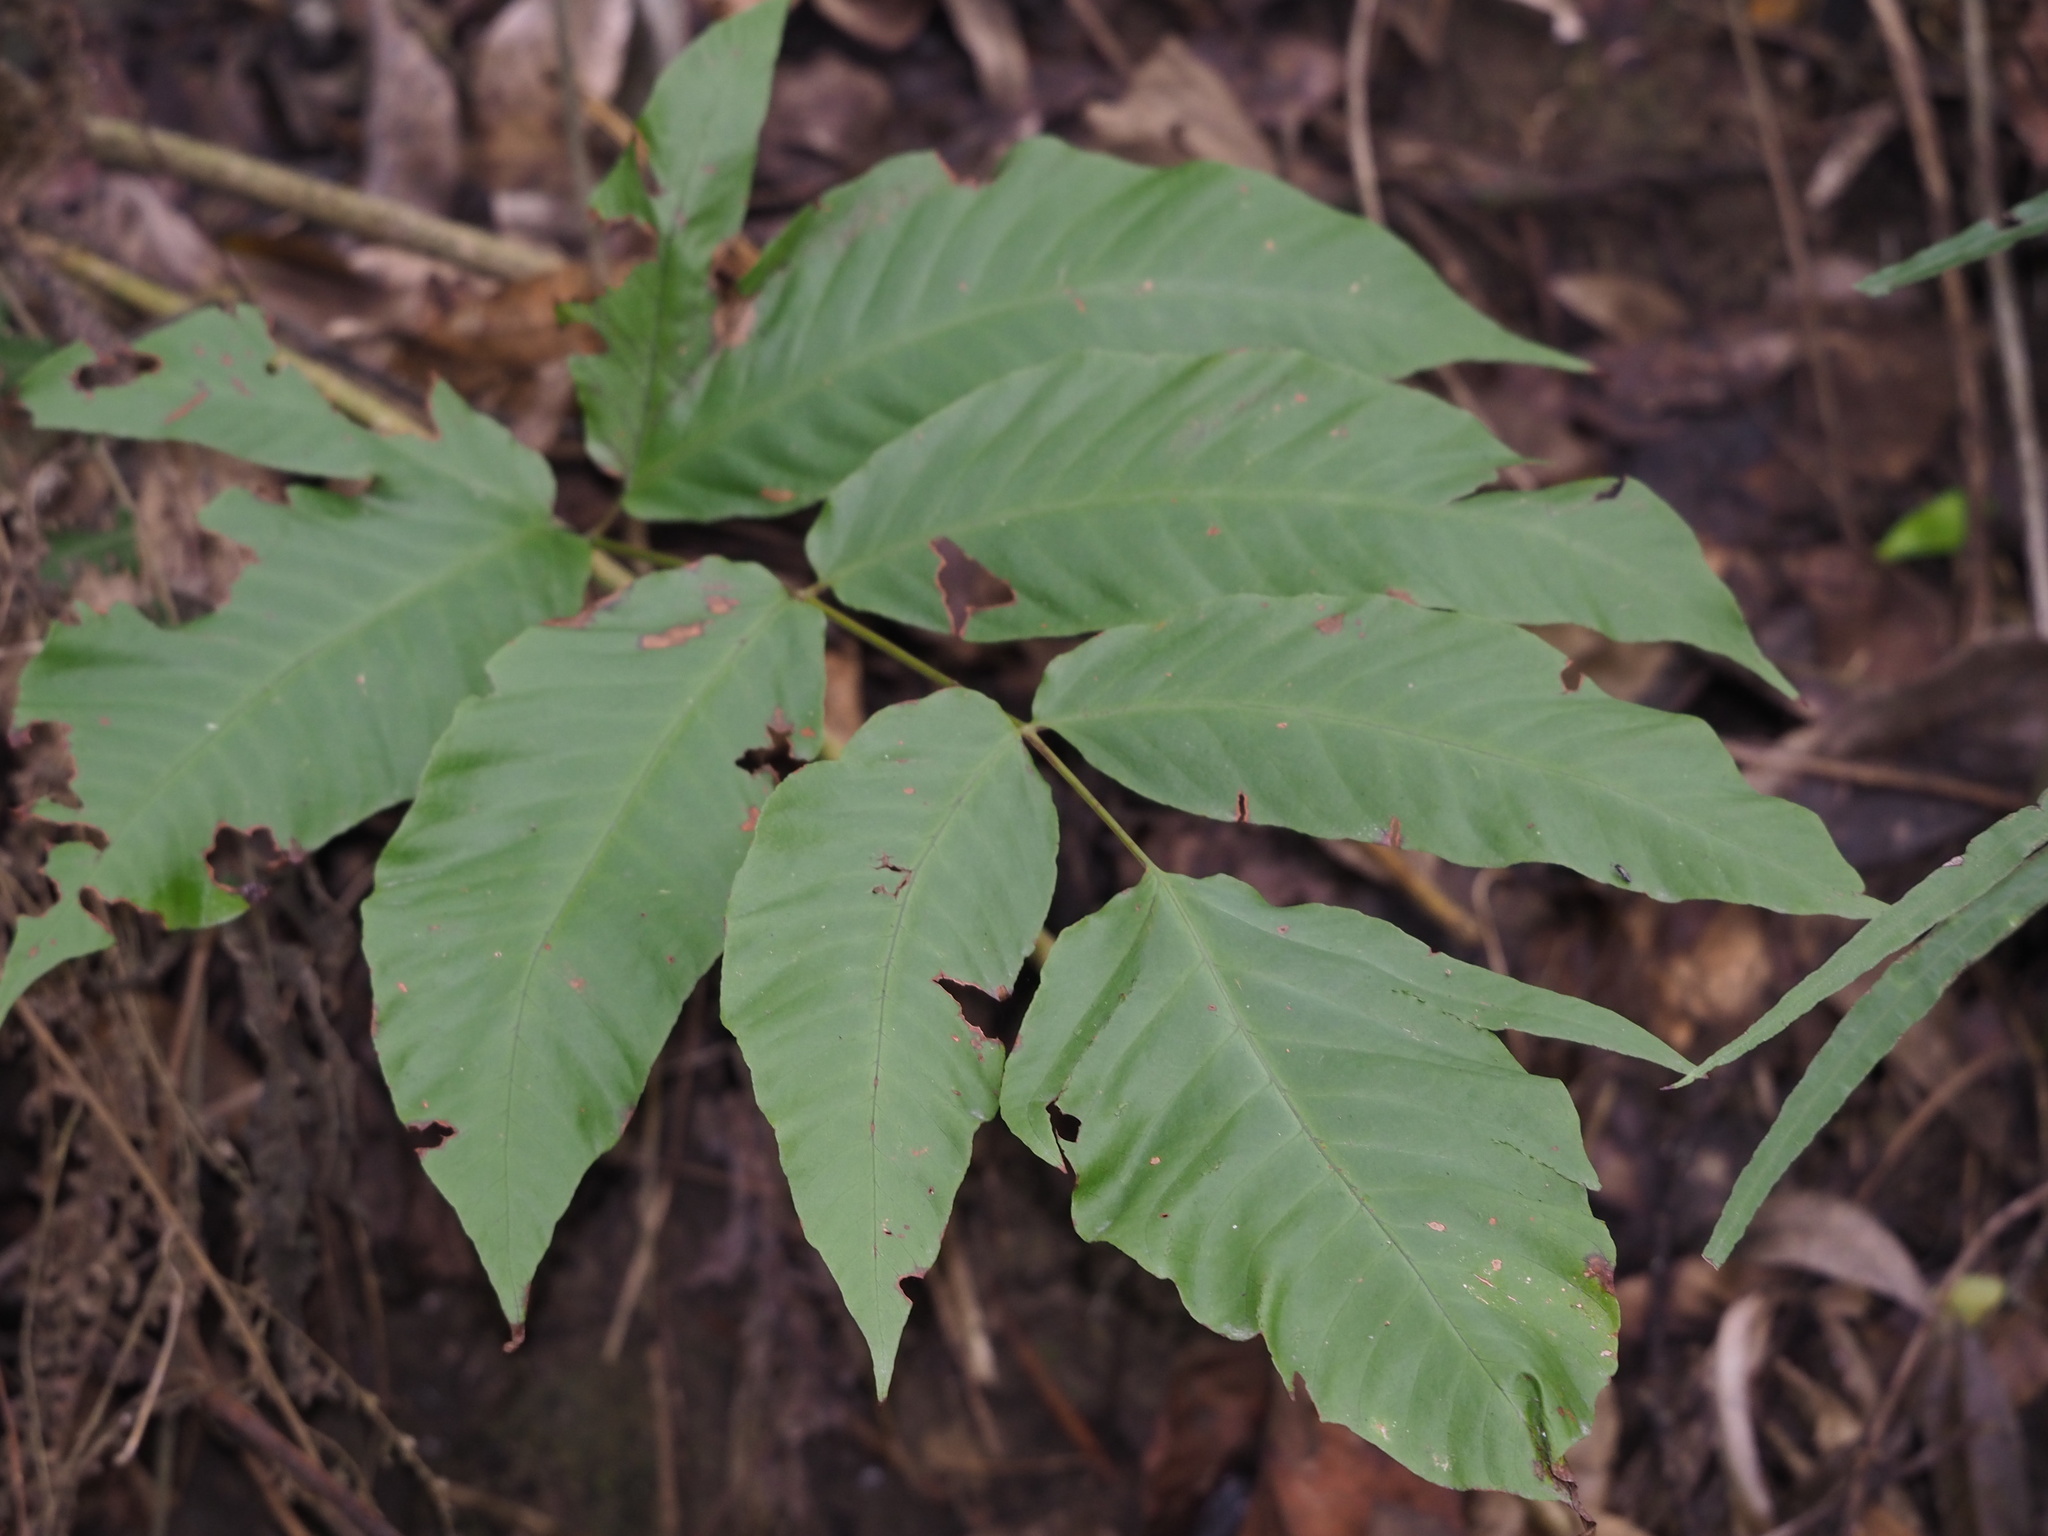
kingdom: Plantae
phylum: Tracheophyta
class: Polypodiopsida
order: Polypodiales
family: Tectariaceae
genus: Tectaria
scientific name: Tectaria polymorpha
